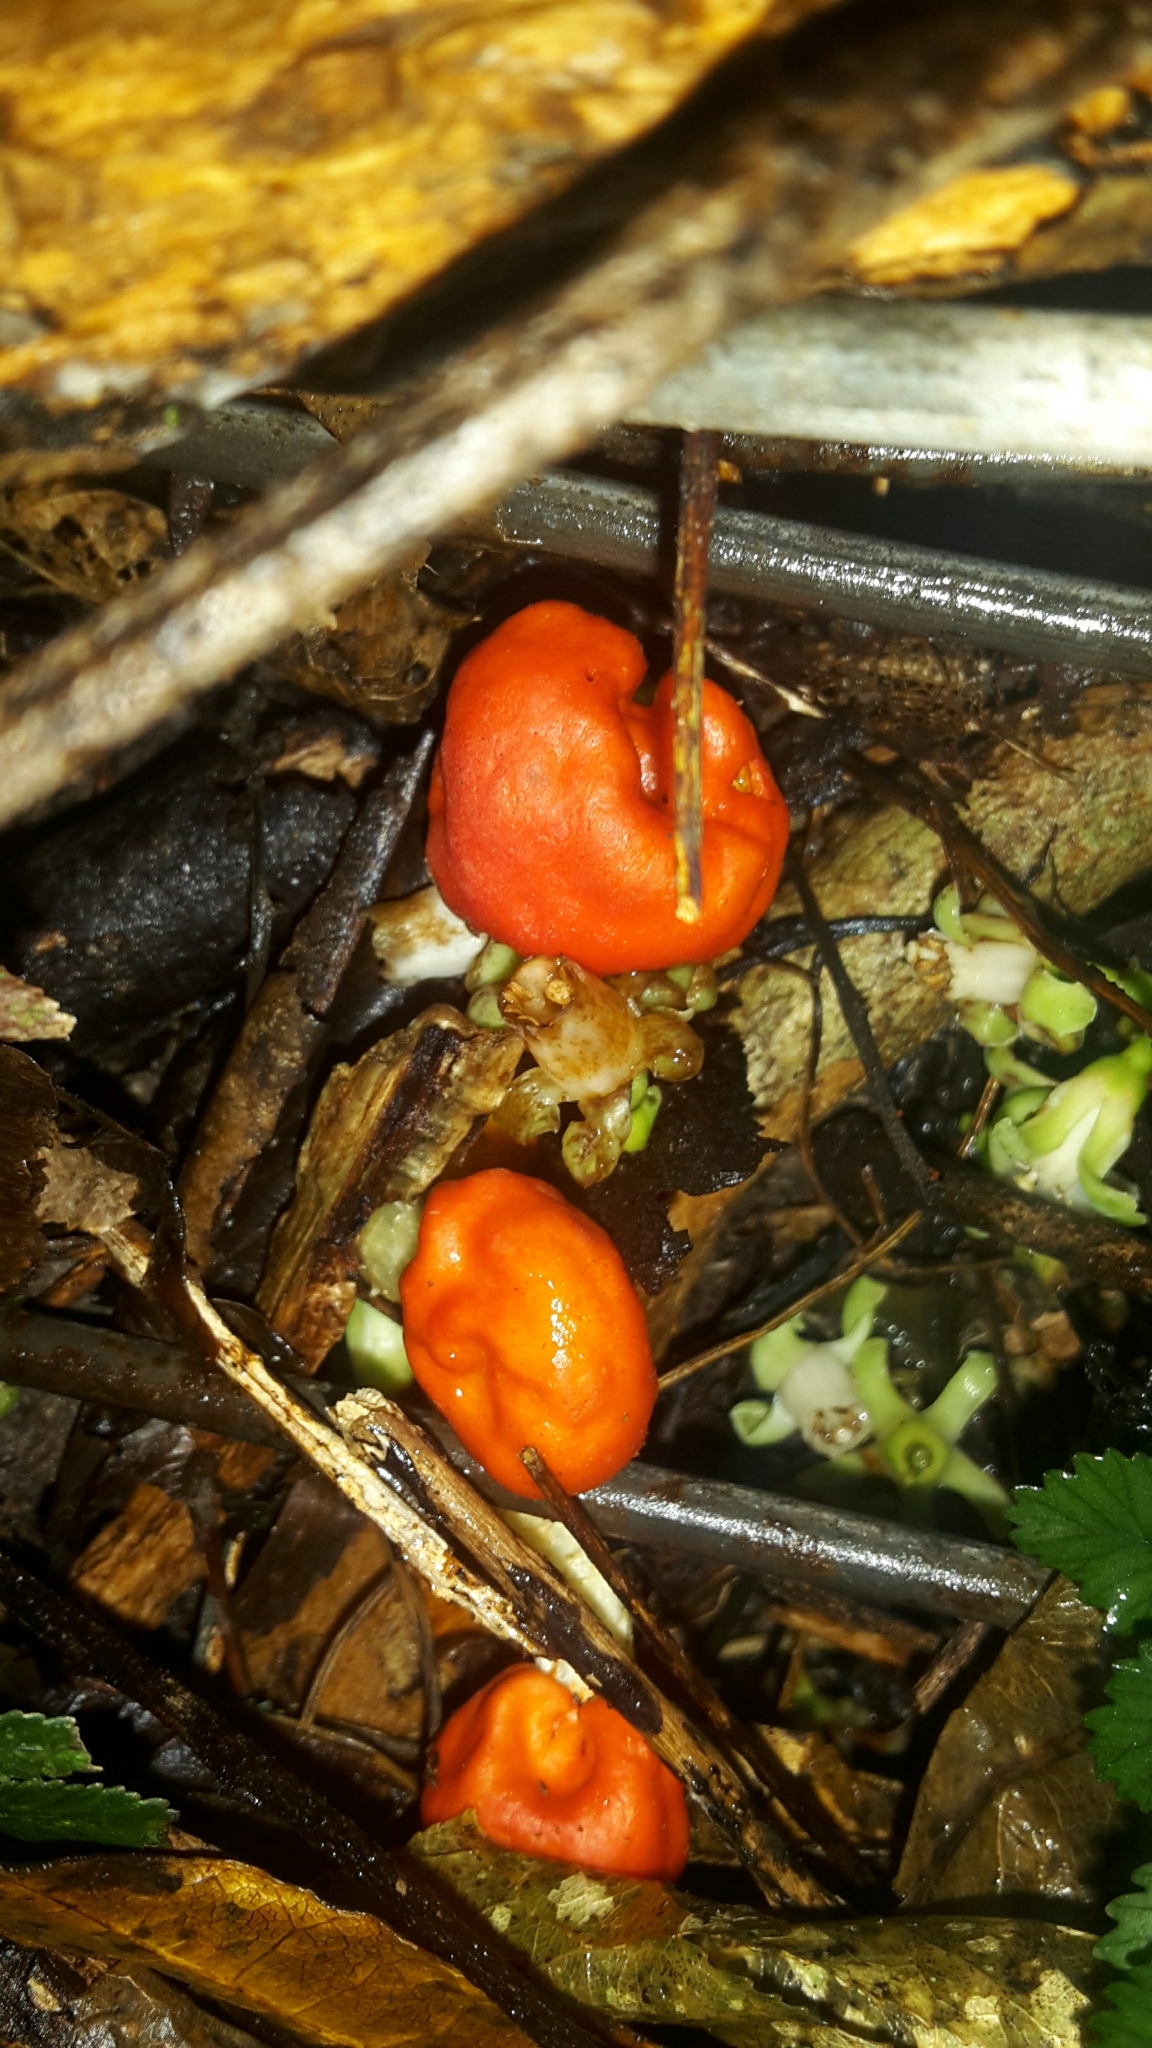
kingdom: Fungi
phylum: Basidiomycota
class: Agaricomycetes
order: Agaricales
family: Strophariaceae
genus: Leratiomyces
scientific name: Leratiomyces erythrocephalus
